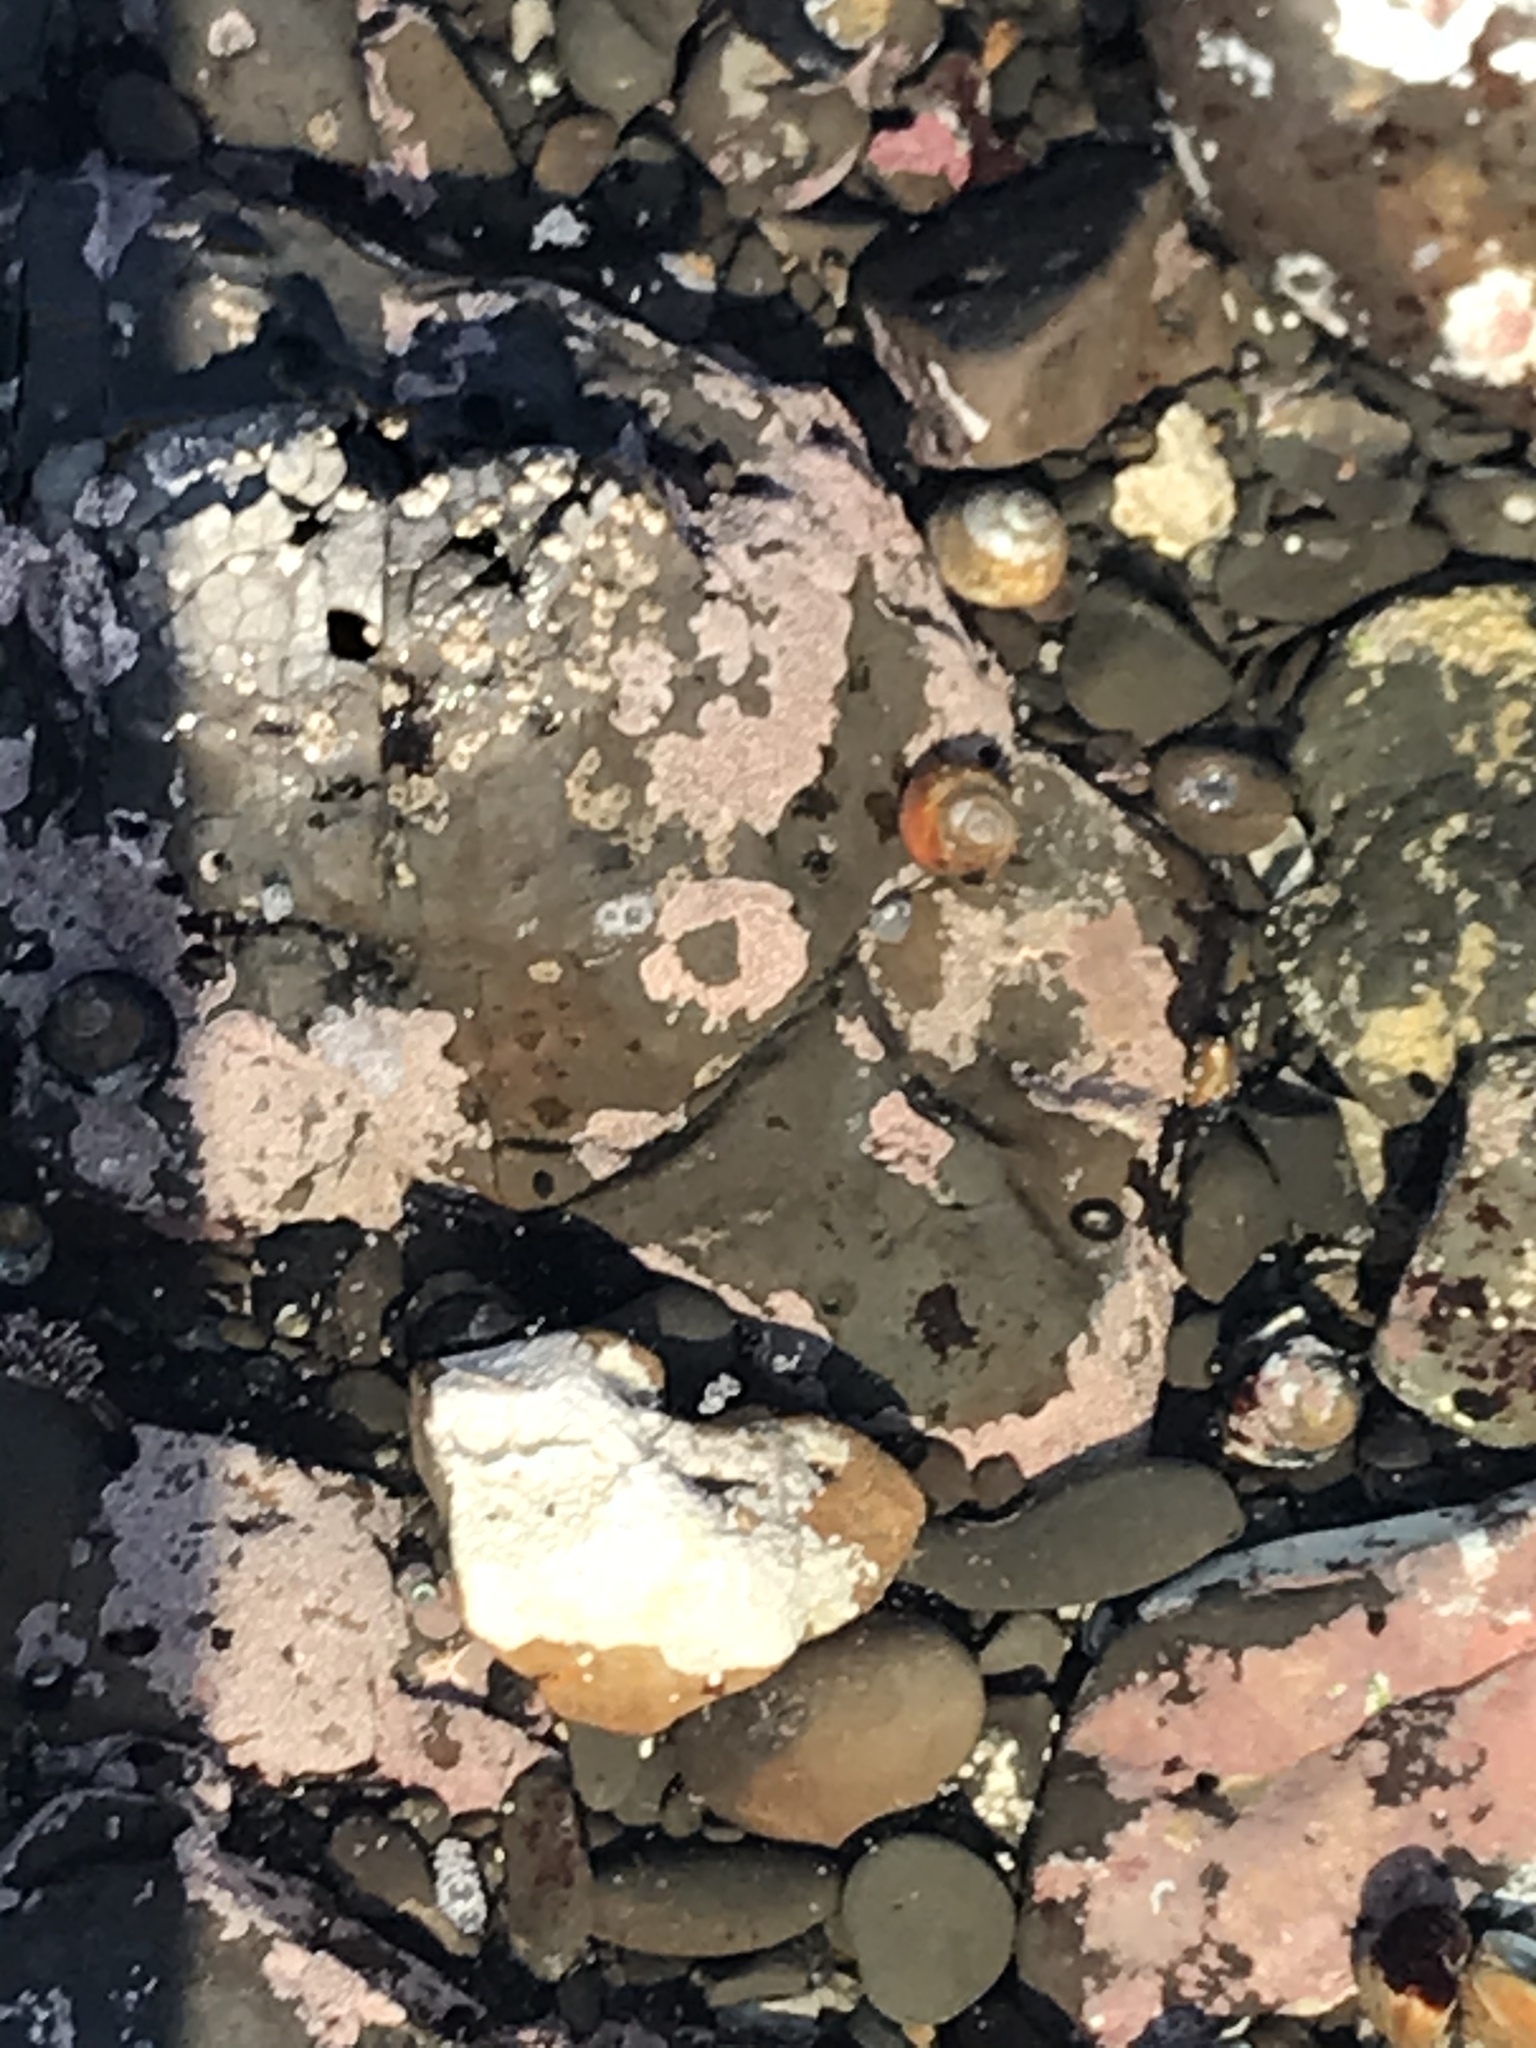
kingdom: Animalia
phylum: Mollusca
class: Gastropoda
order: Trochida
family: Tegulidae
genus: Tegula
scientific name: Tegula brunnea
